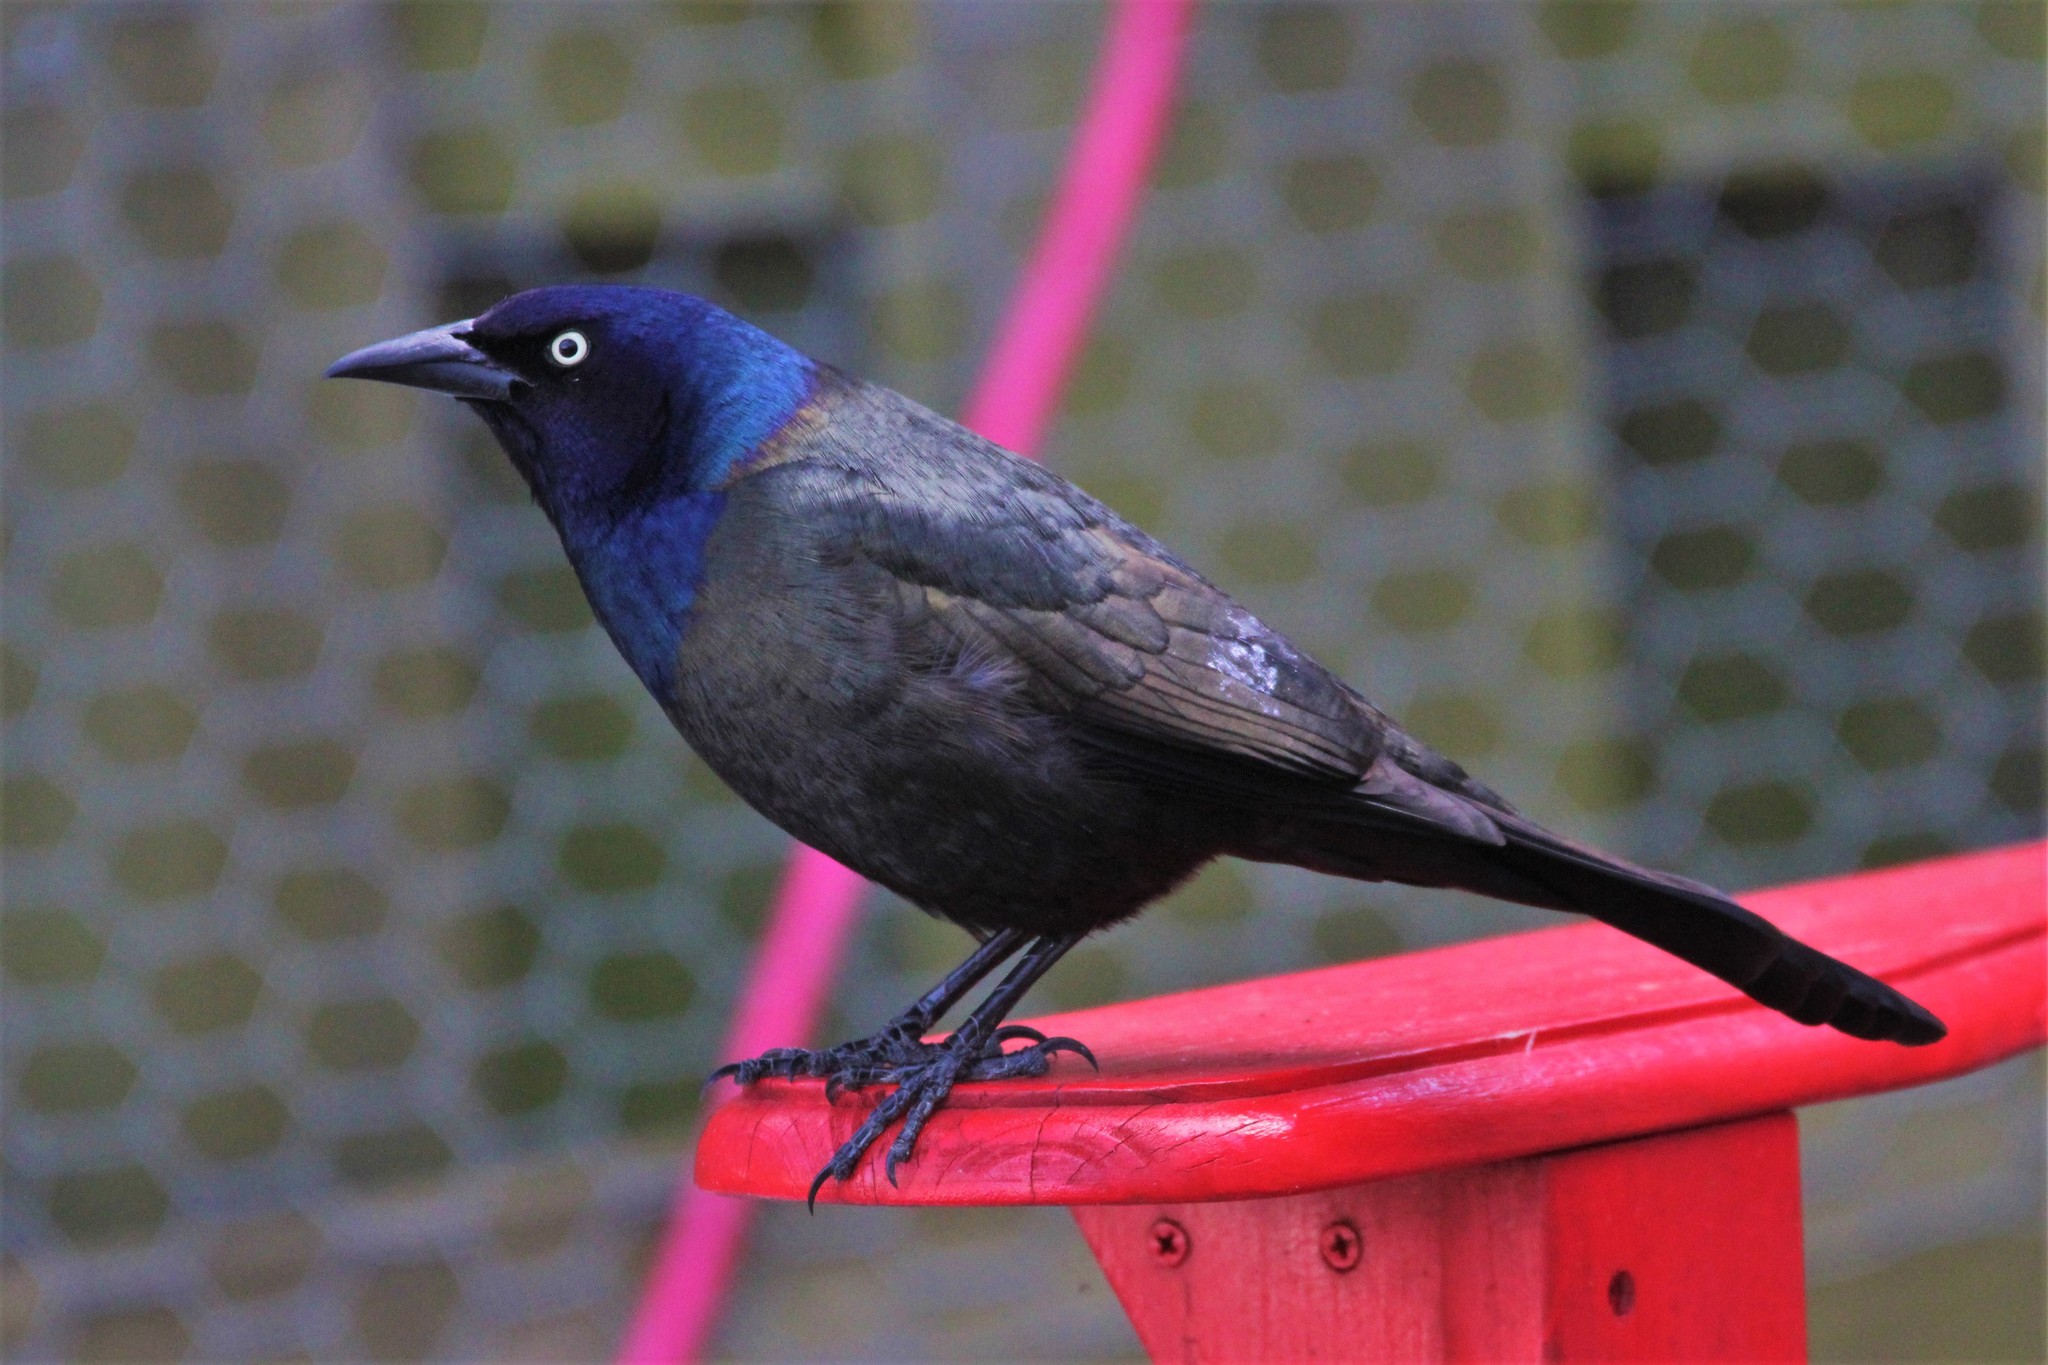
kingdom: Animalia
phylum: Chordata
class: Aves
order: Passeriformes
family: Icteridae
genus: Quiscalus
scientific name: Quiscalus quiscula
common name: Common grackle
